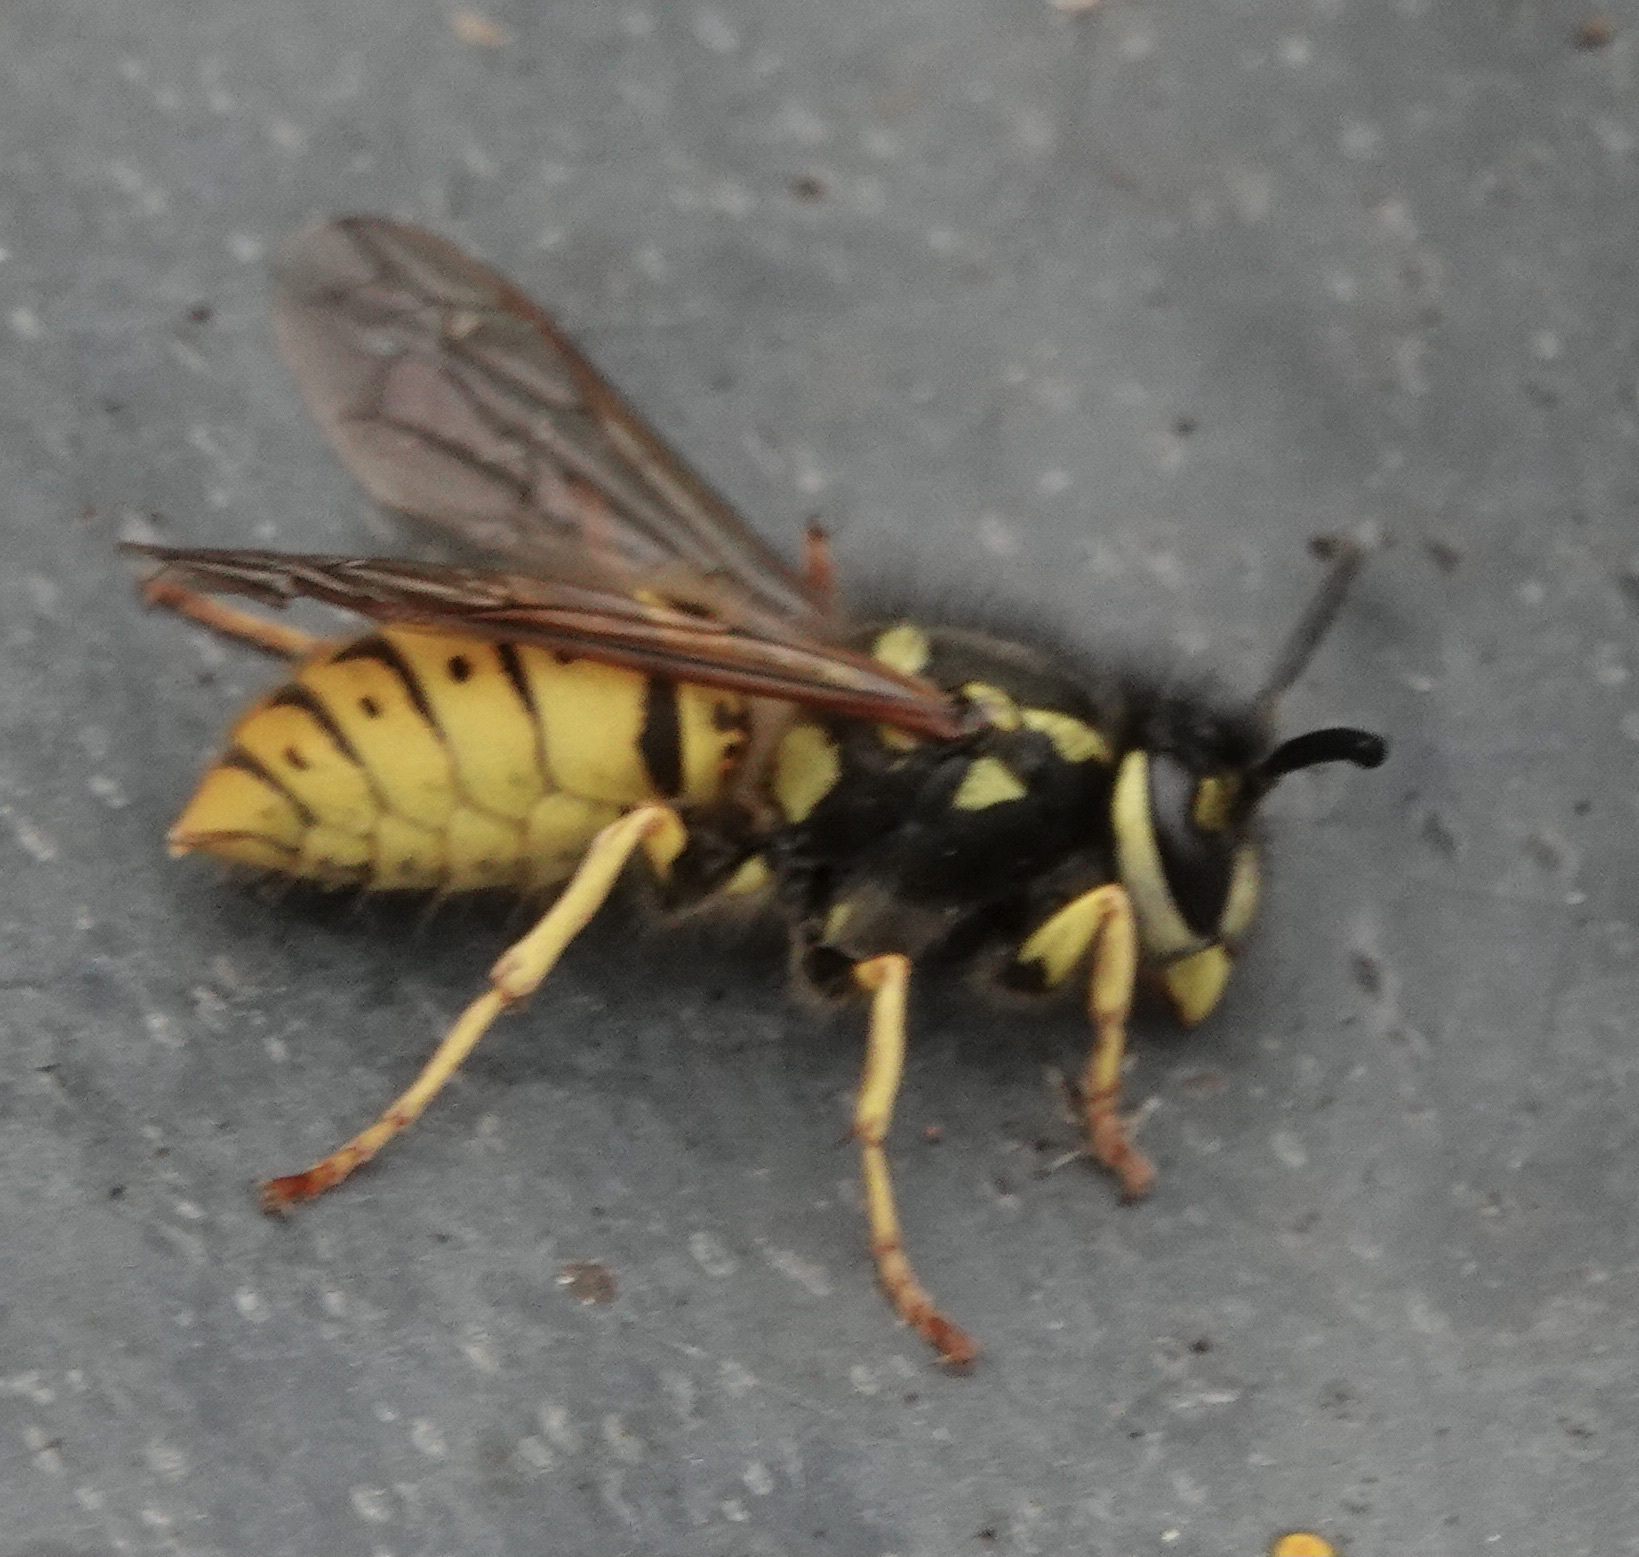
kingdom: Animalia
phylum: Arthropoda
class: Insecta
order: Hymenoptera
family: Vespidae
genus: Vespula
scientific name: Vespula germanica
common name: German wasp
